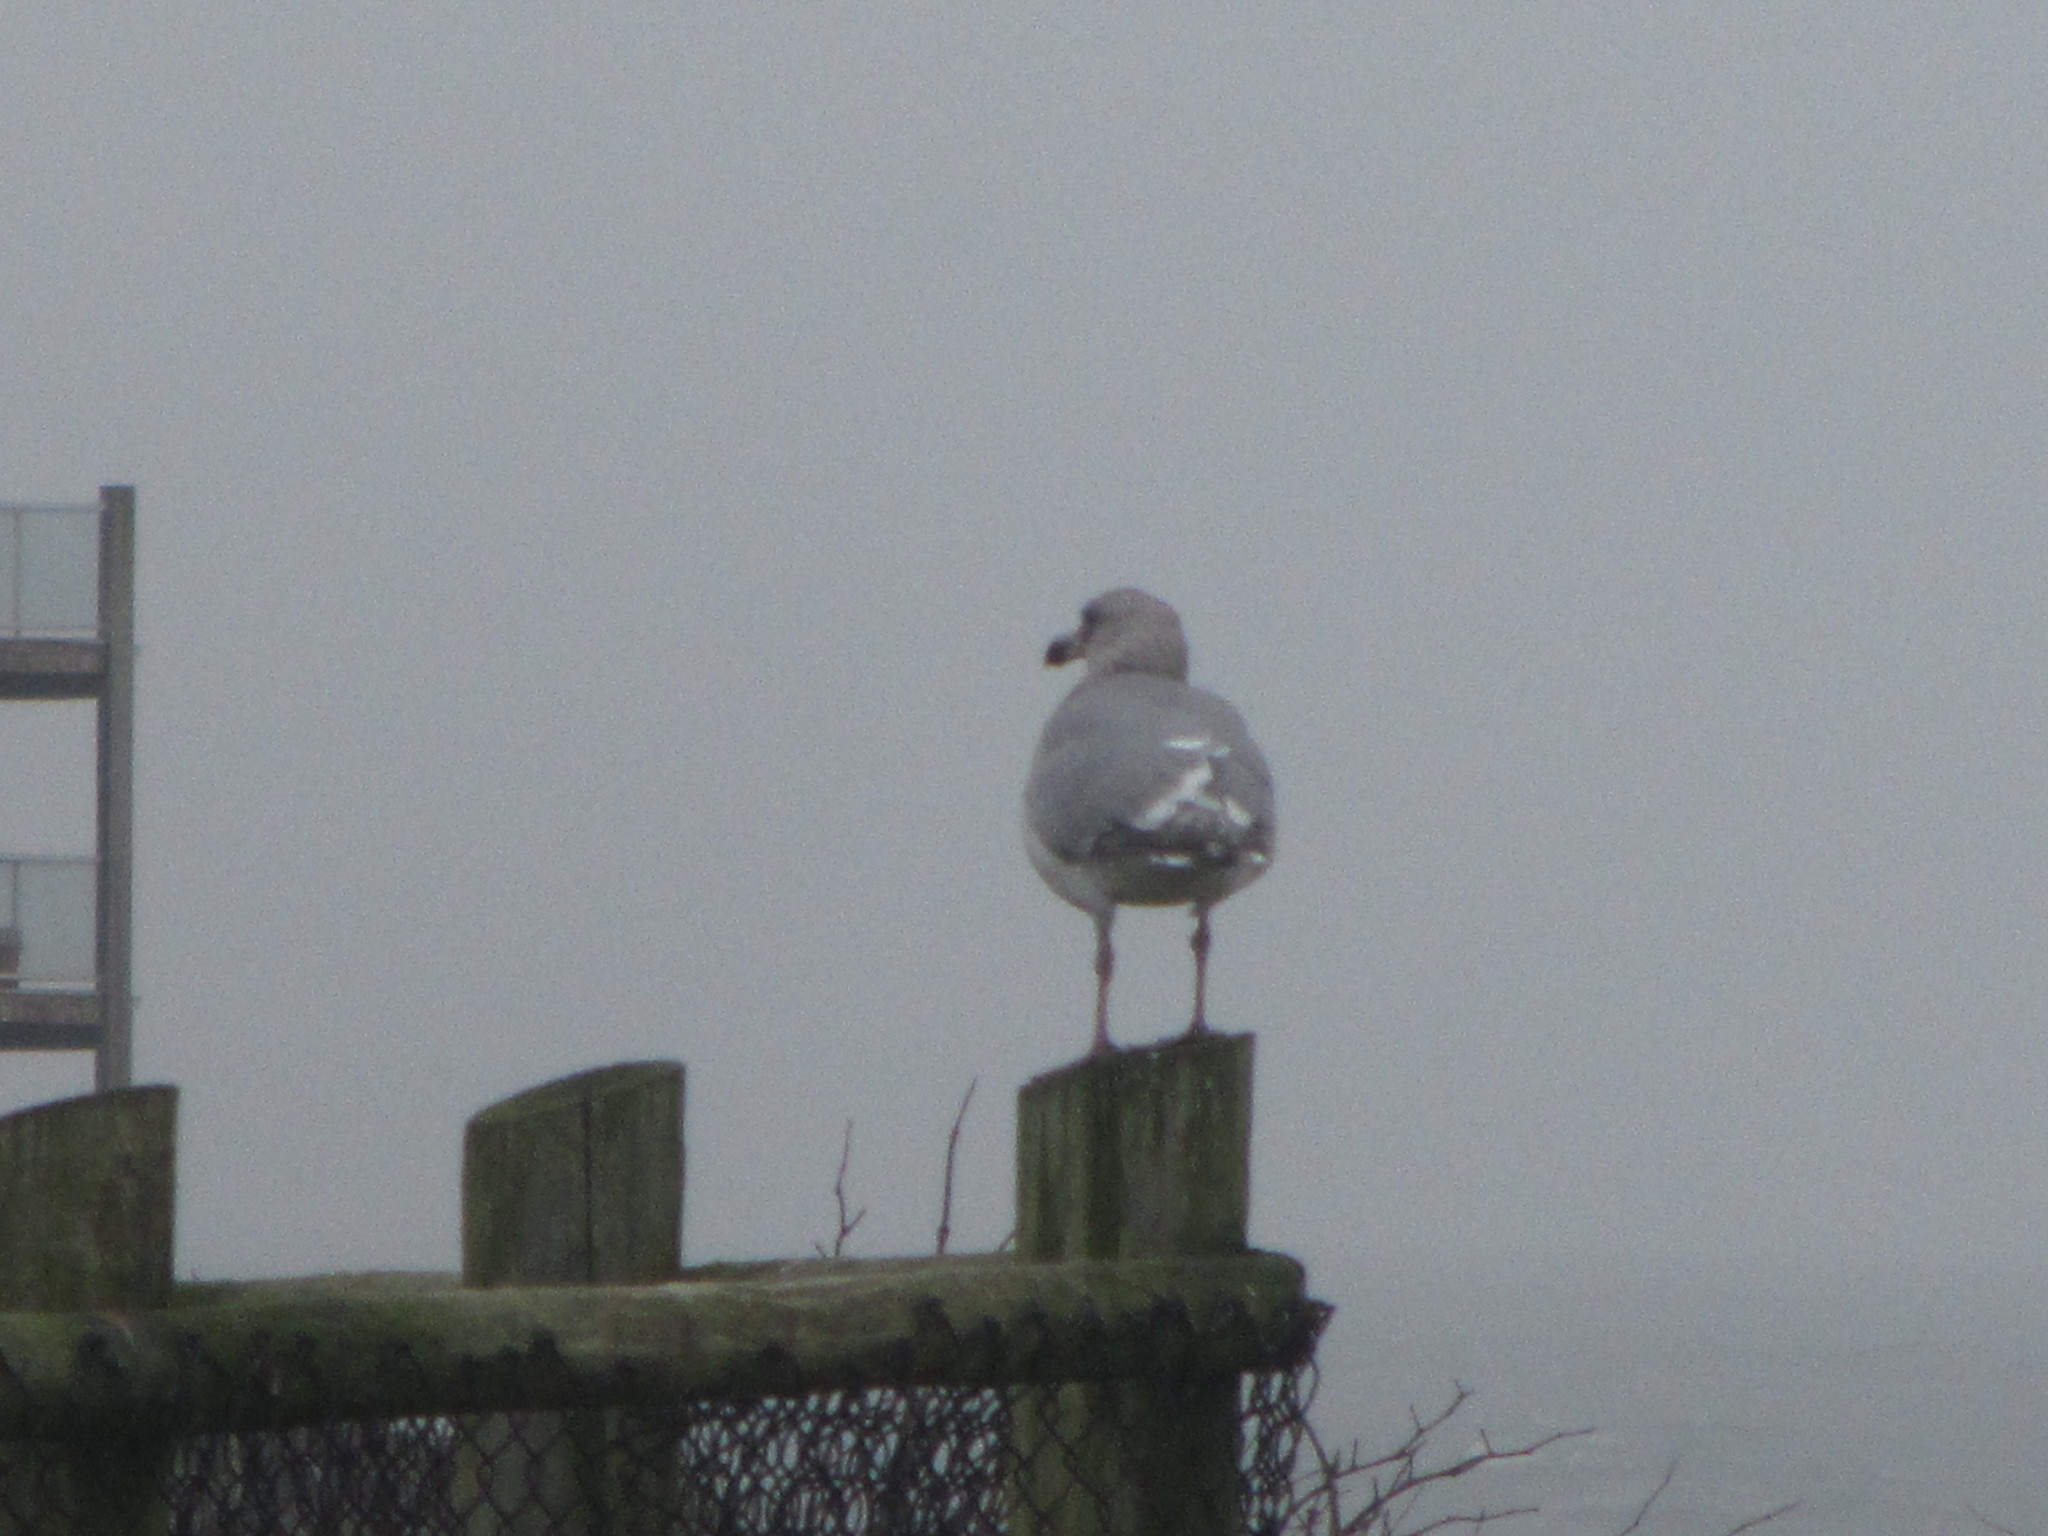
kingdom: Animalia
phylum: Chordata
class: Aves
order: Charadriiformes
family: Laridae
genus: Larus
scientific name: Larus
